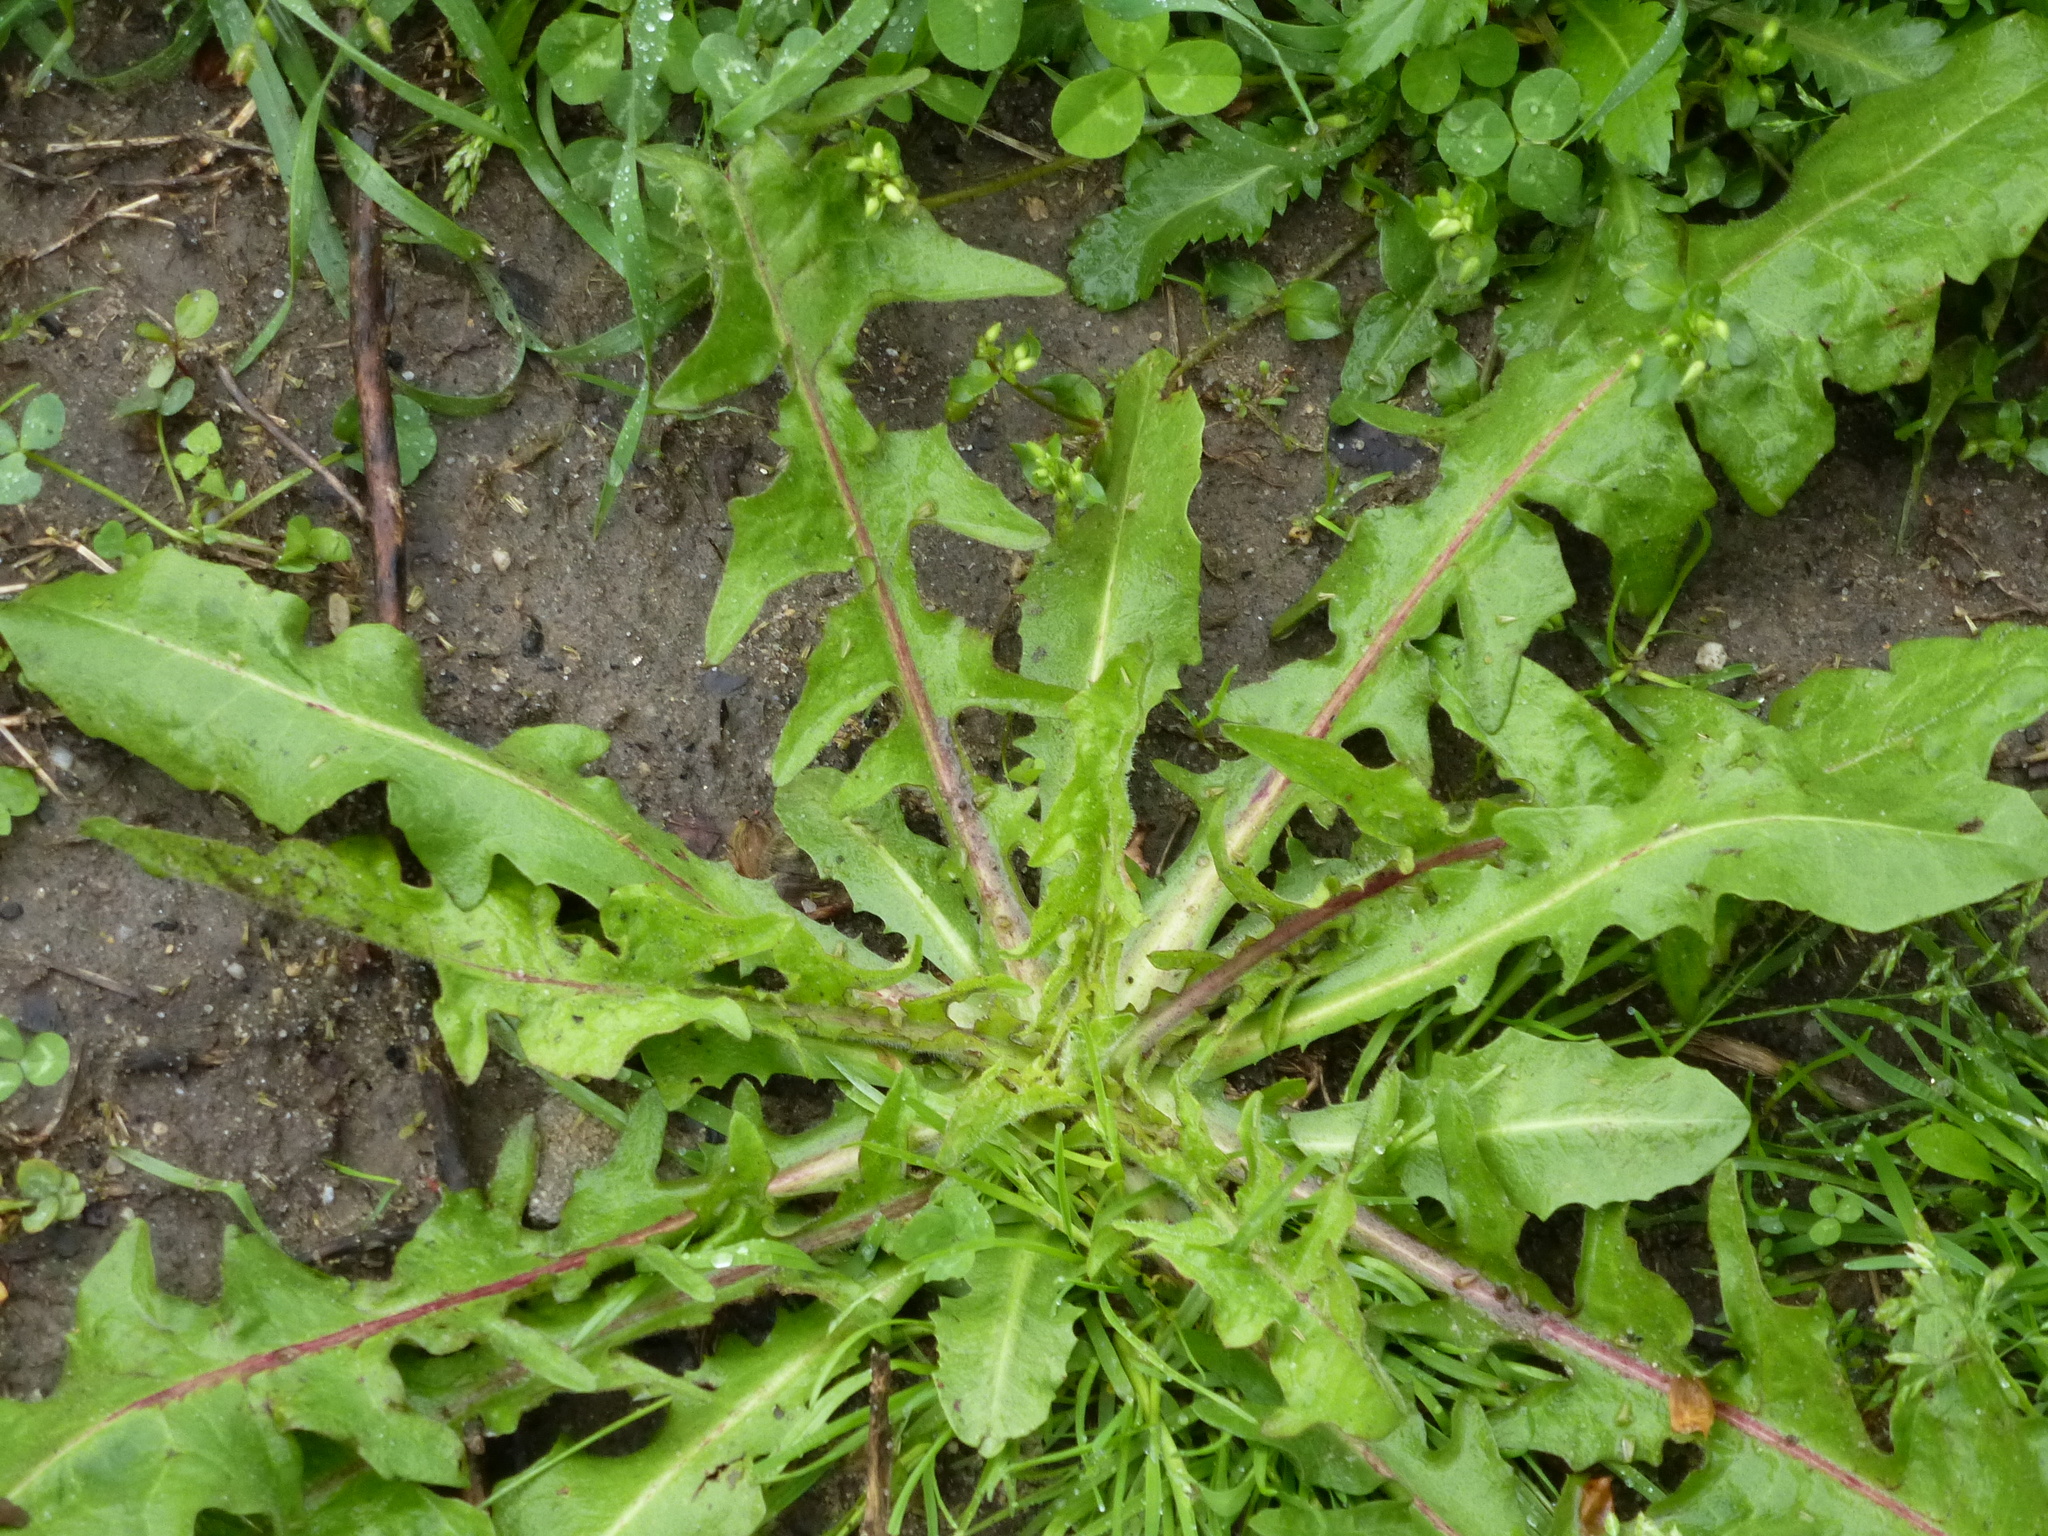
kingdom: Plantae
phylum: Tracheophyta
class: Magnoliopsida
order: Asterales
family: Asteraceae
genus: Taraxacum
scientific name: Taraxacum officinale
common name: Common dandelion
